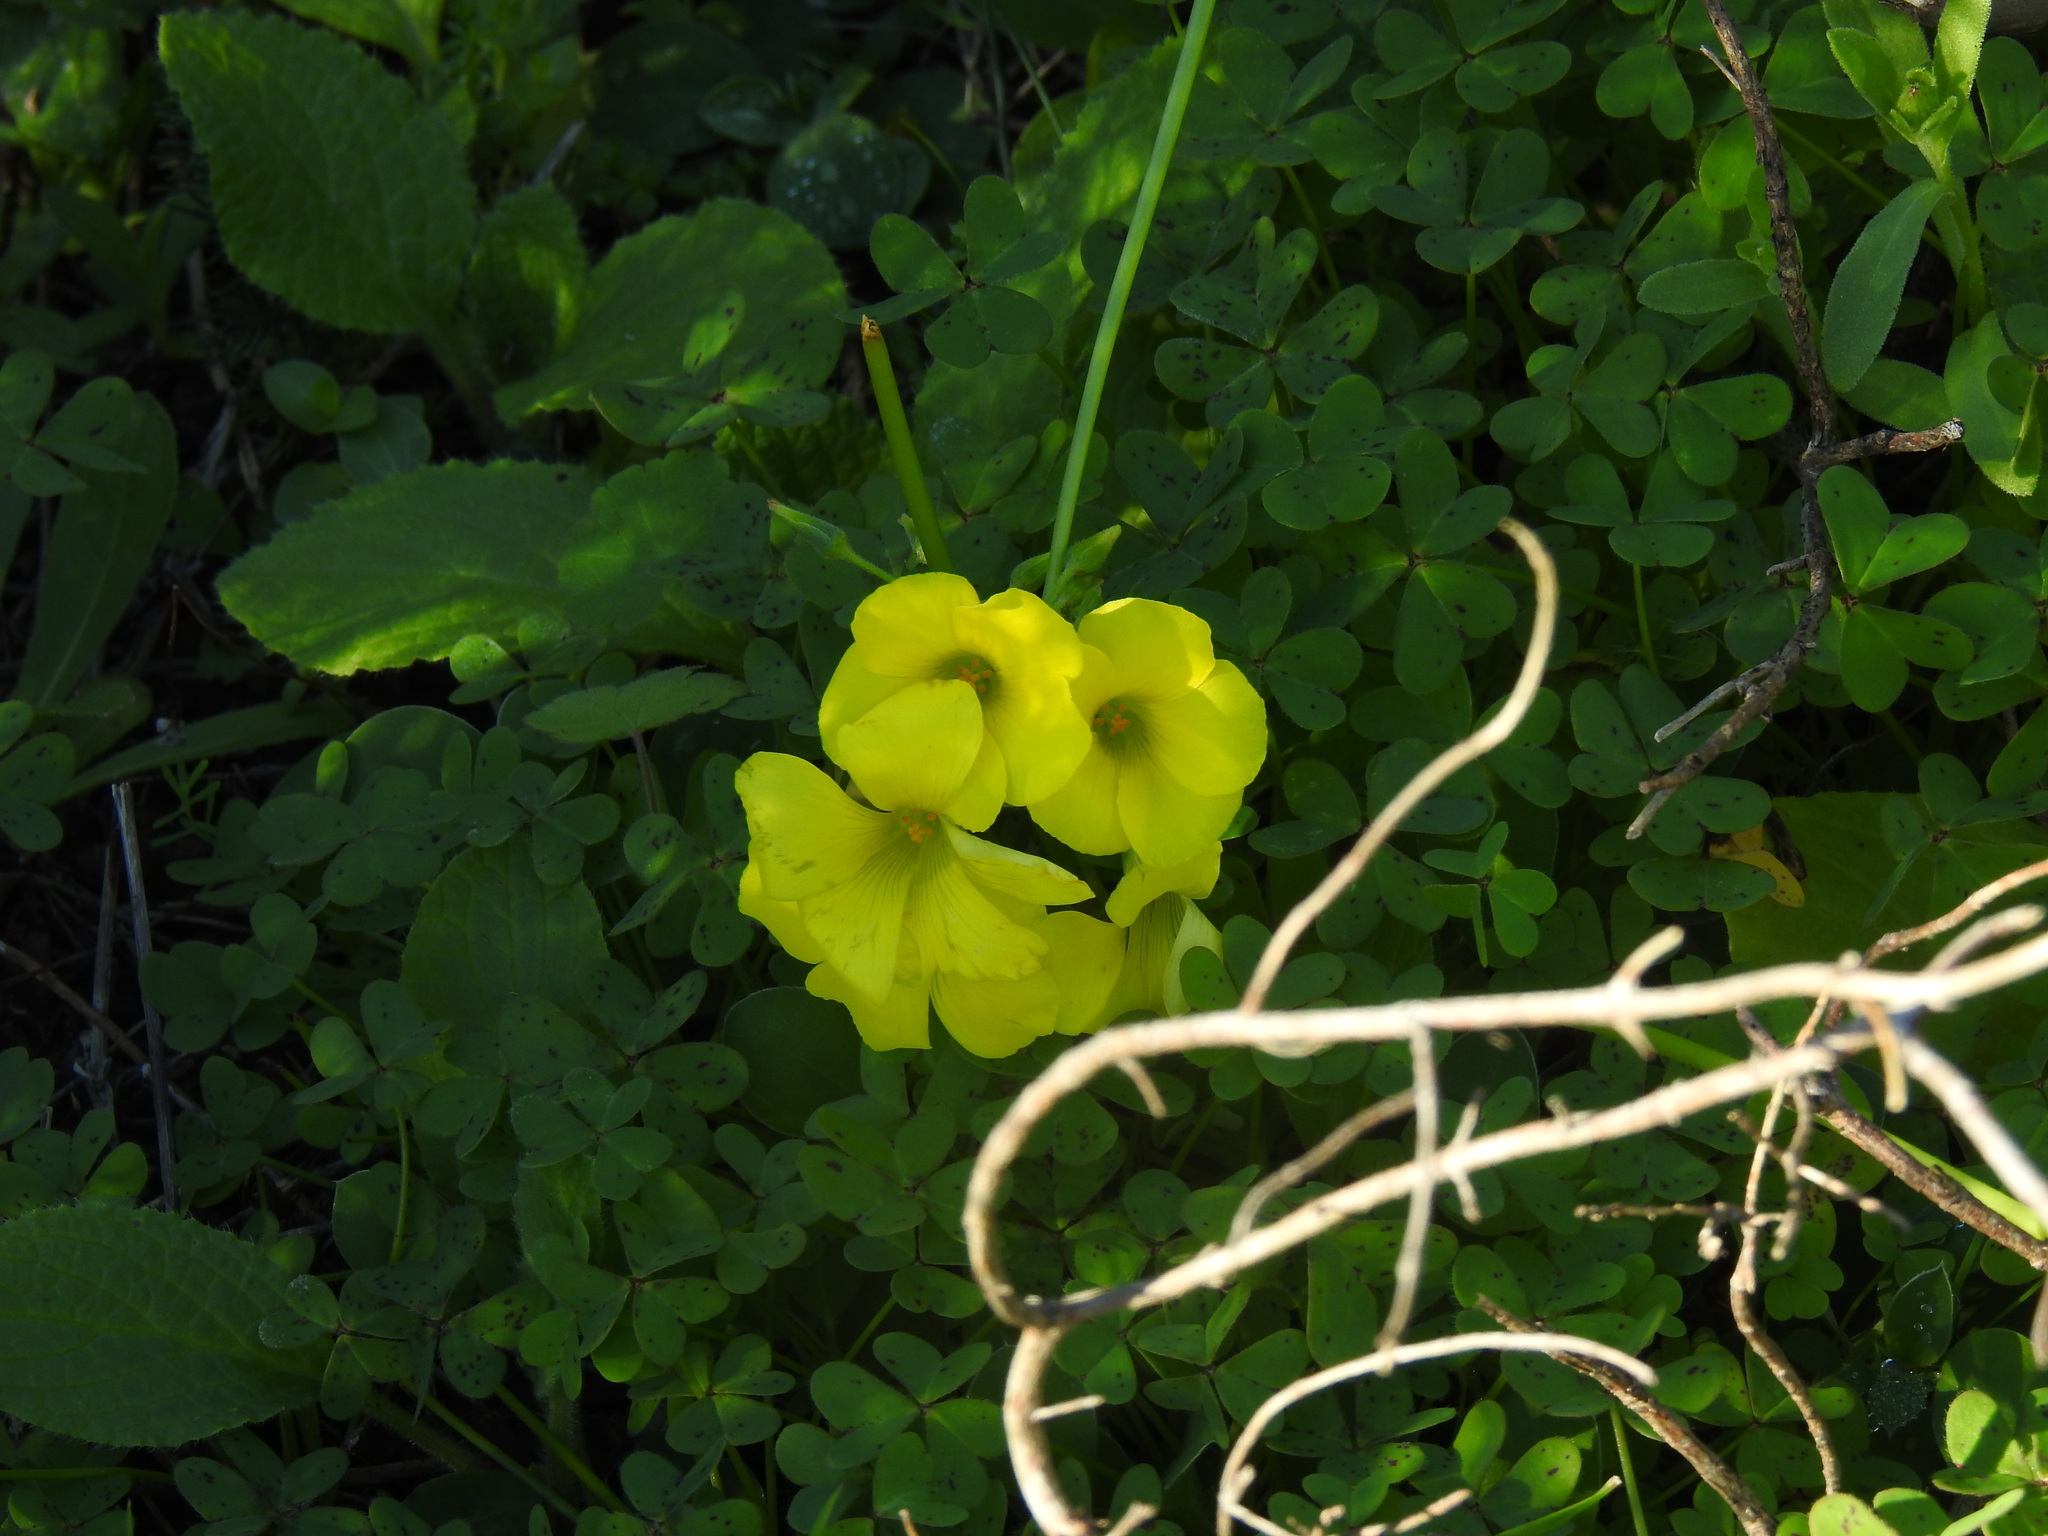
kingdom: Plantae
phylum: Tracheophyta
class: Magnoliopsida
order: Oxalidales
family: Oxalidaceae
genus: Oxalis
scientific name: Oxalis pes-caprae
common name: Bermuda-buttercup
